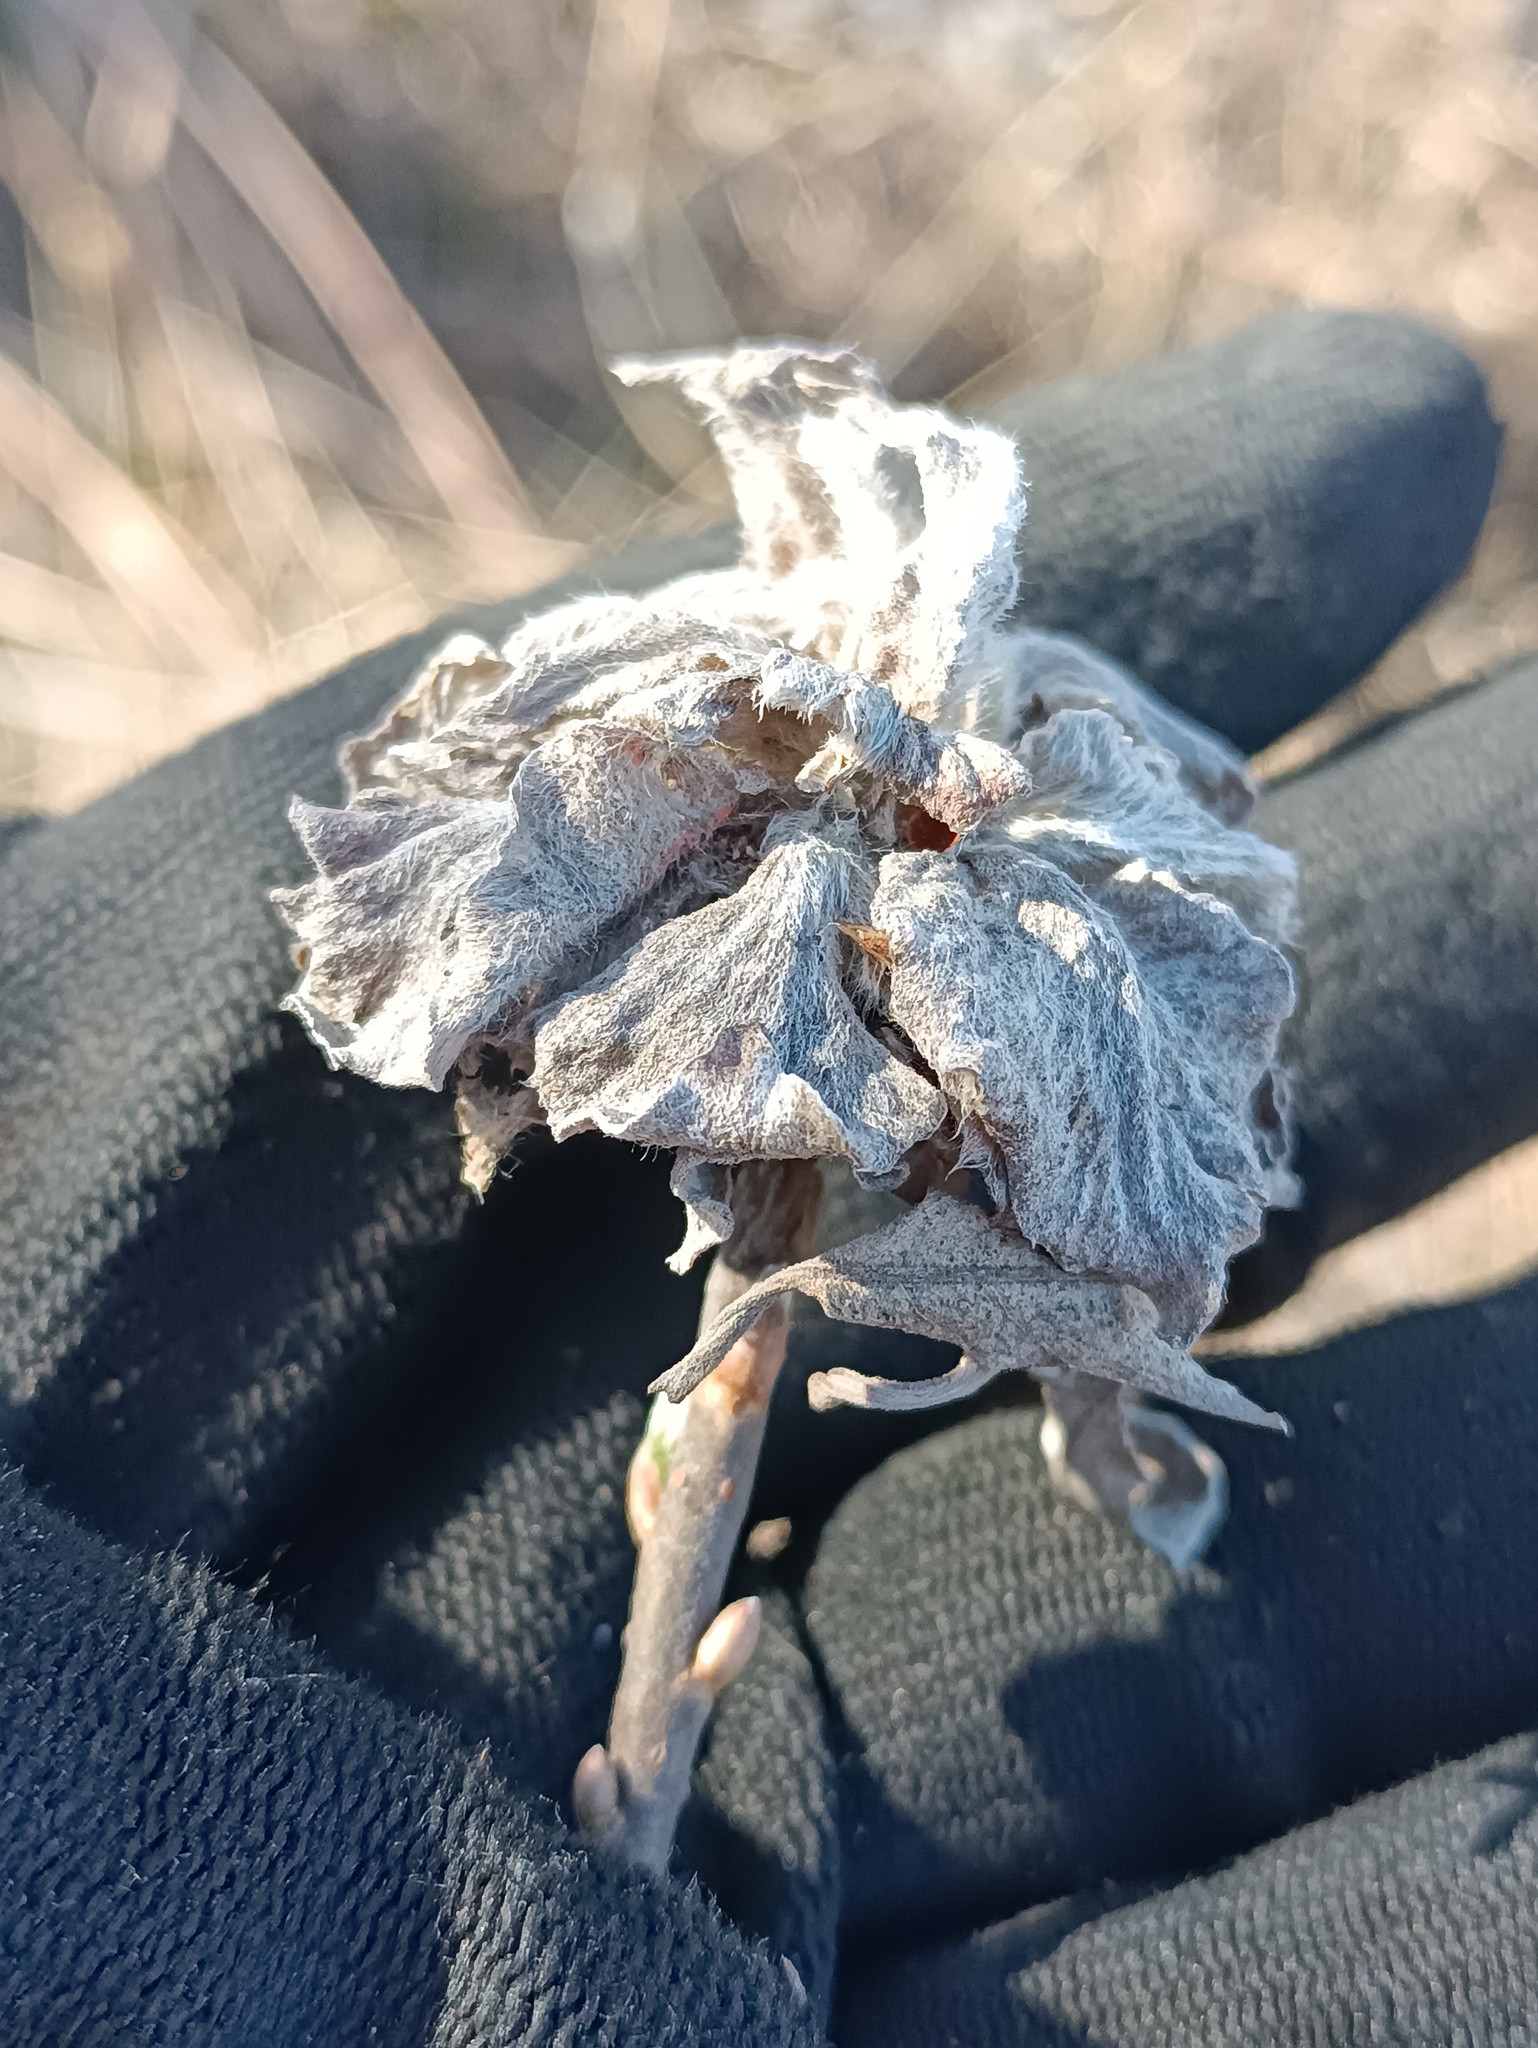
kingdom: Animalia
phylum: Arthropoda
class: Insecta
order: Diptera
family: Cecidomyiidae
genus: Rabdophaga
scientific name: Rabdophaga rosaria
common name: Willow rose gall midge
